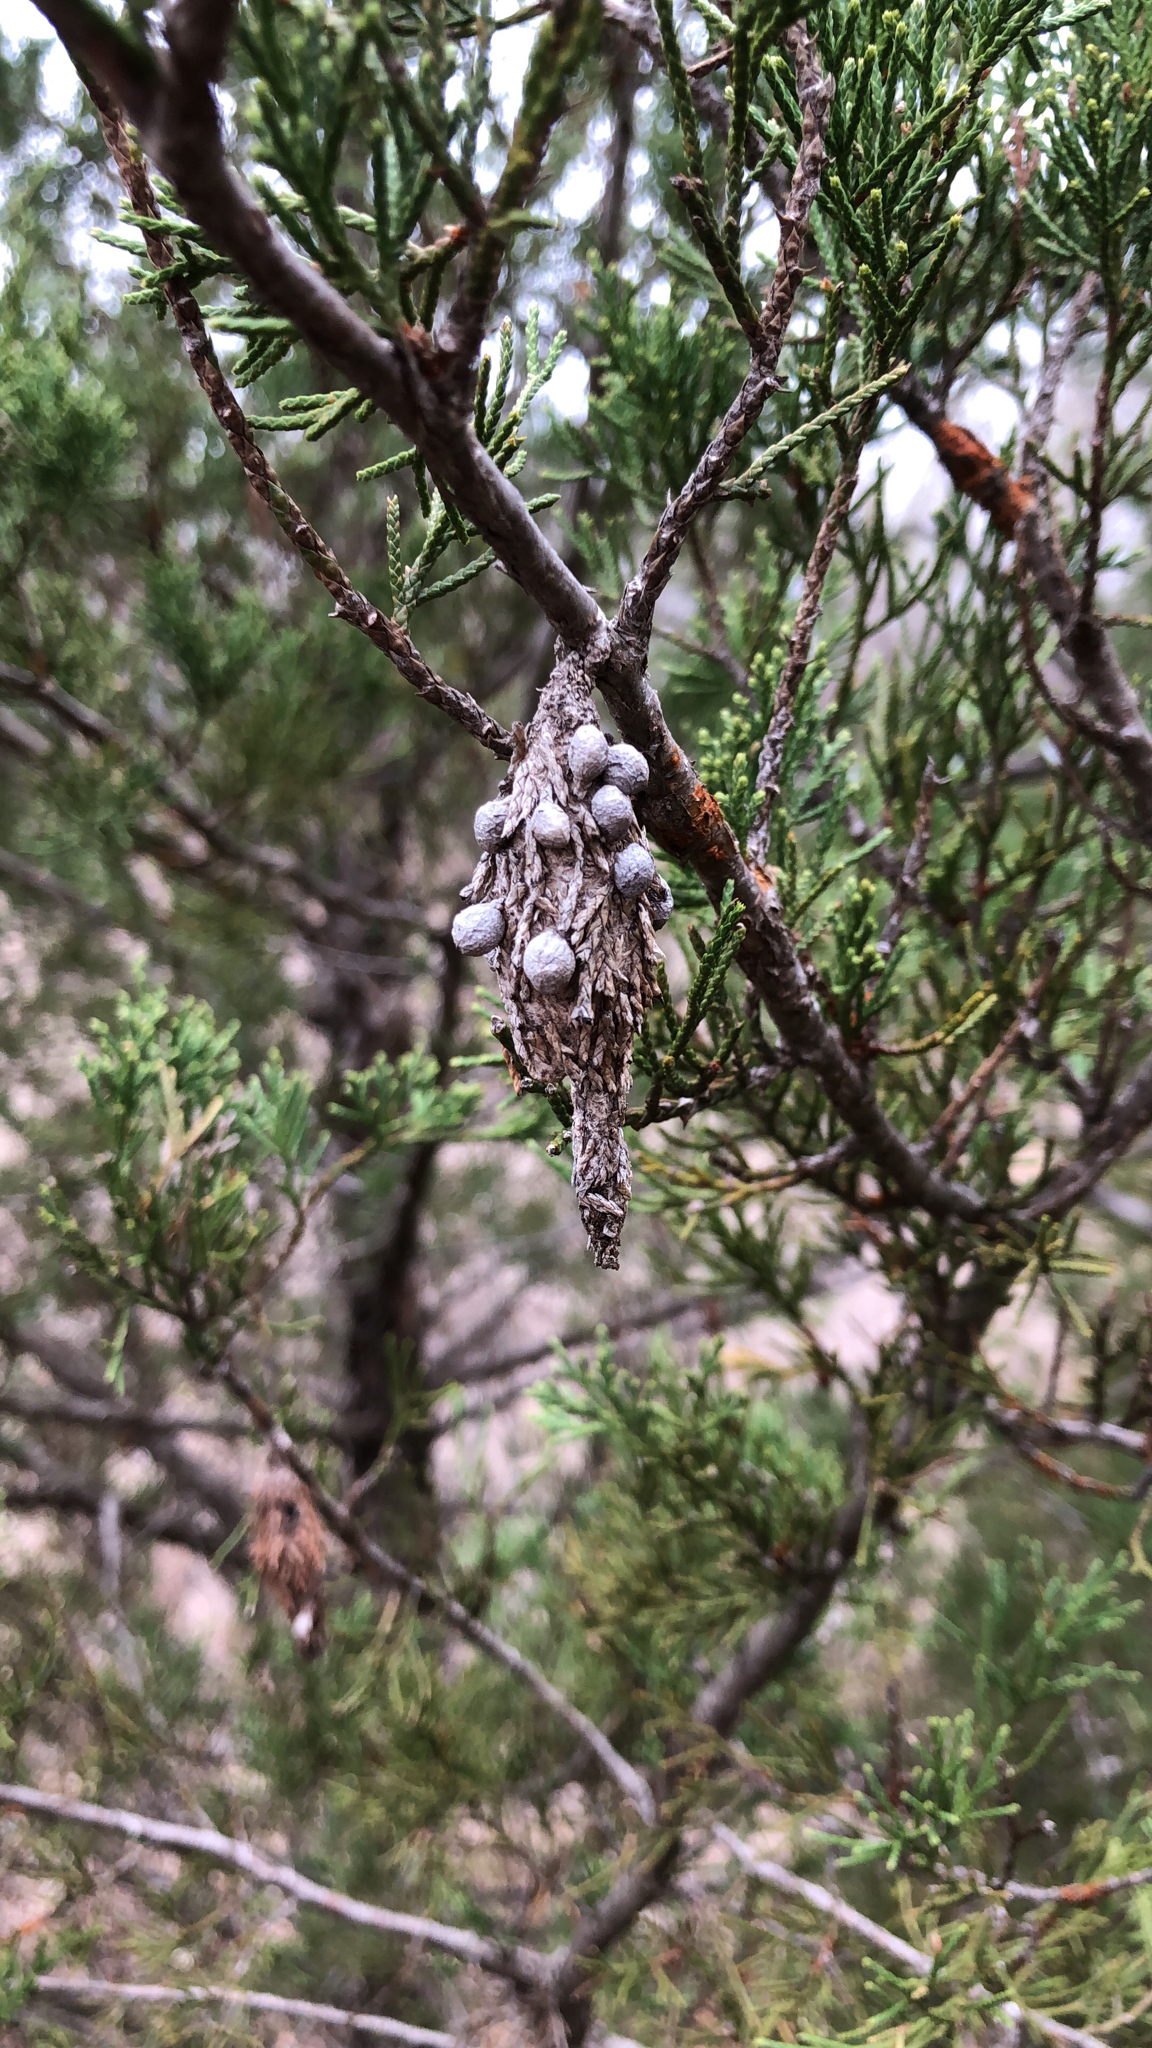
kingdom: Animalia
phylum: Arthropoda
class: Insecta
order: Lepidoptera
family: Psychidae
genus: Thyridopteryx
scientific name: Thyridopteryx ephemeraeformis
